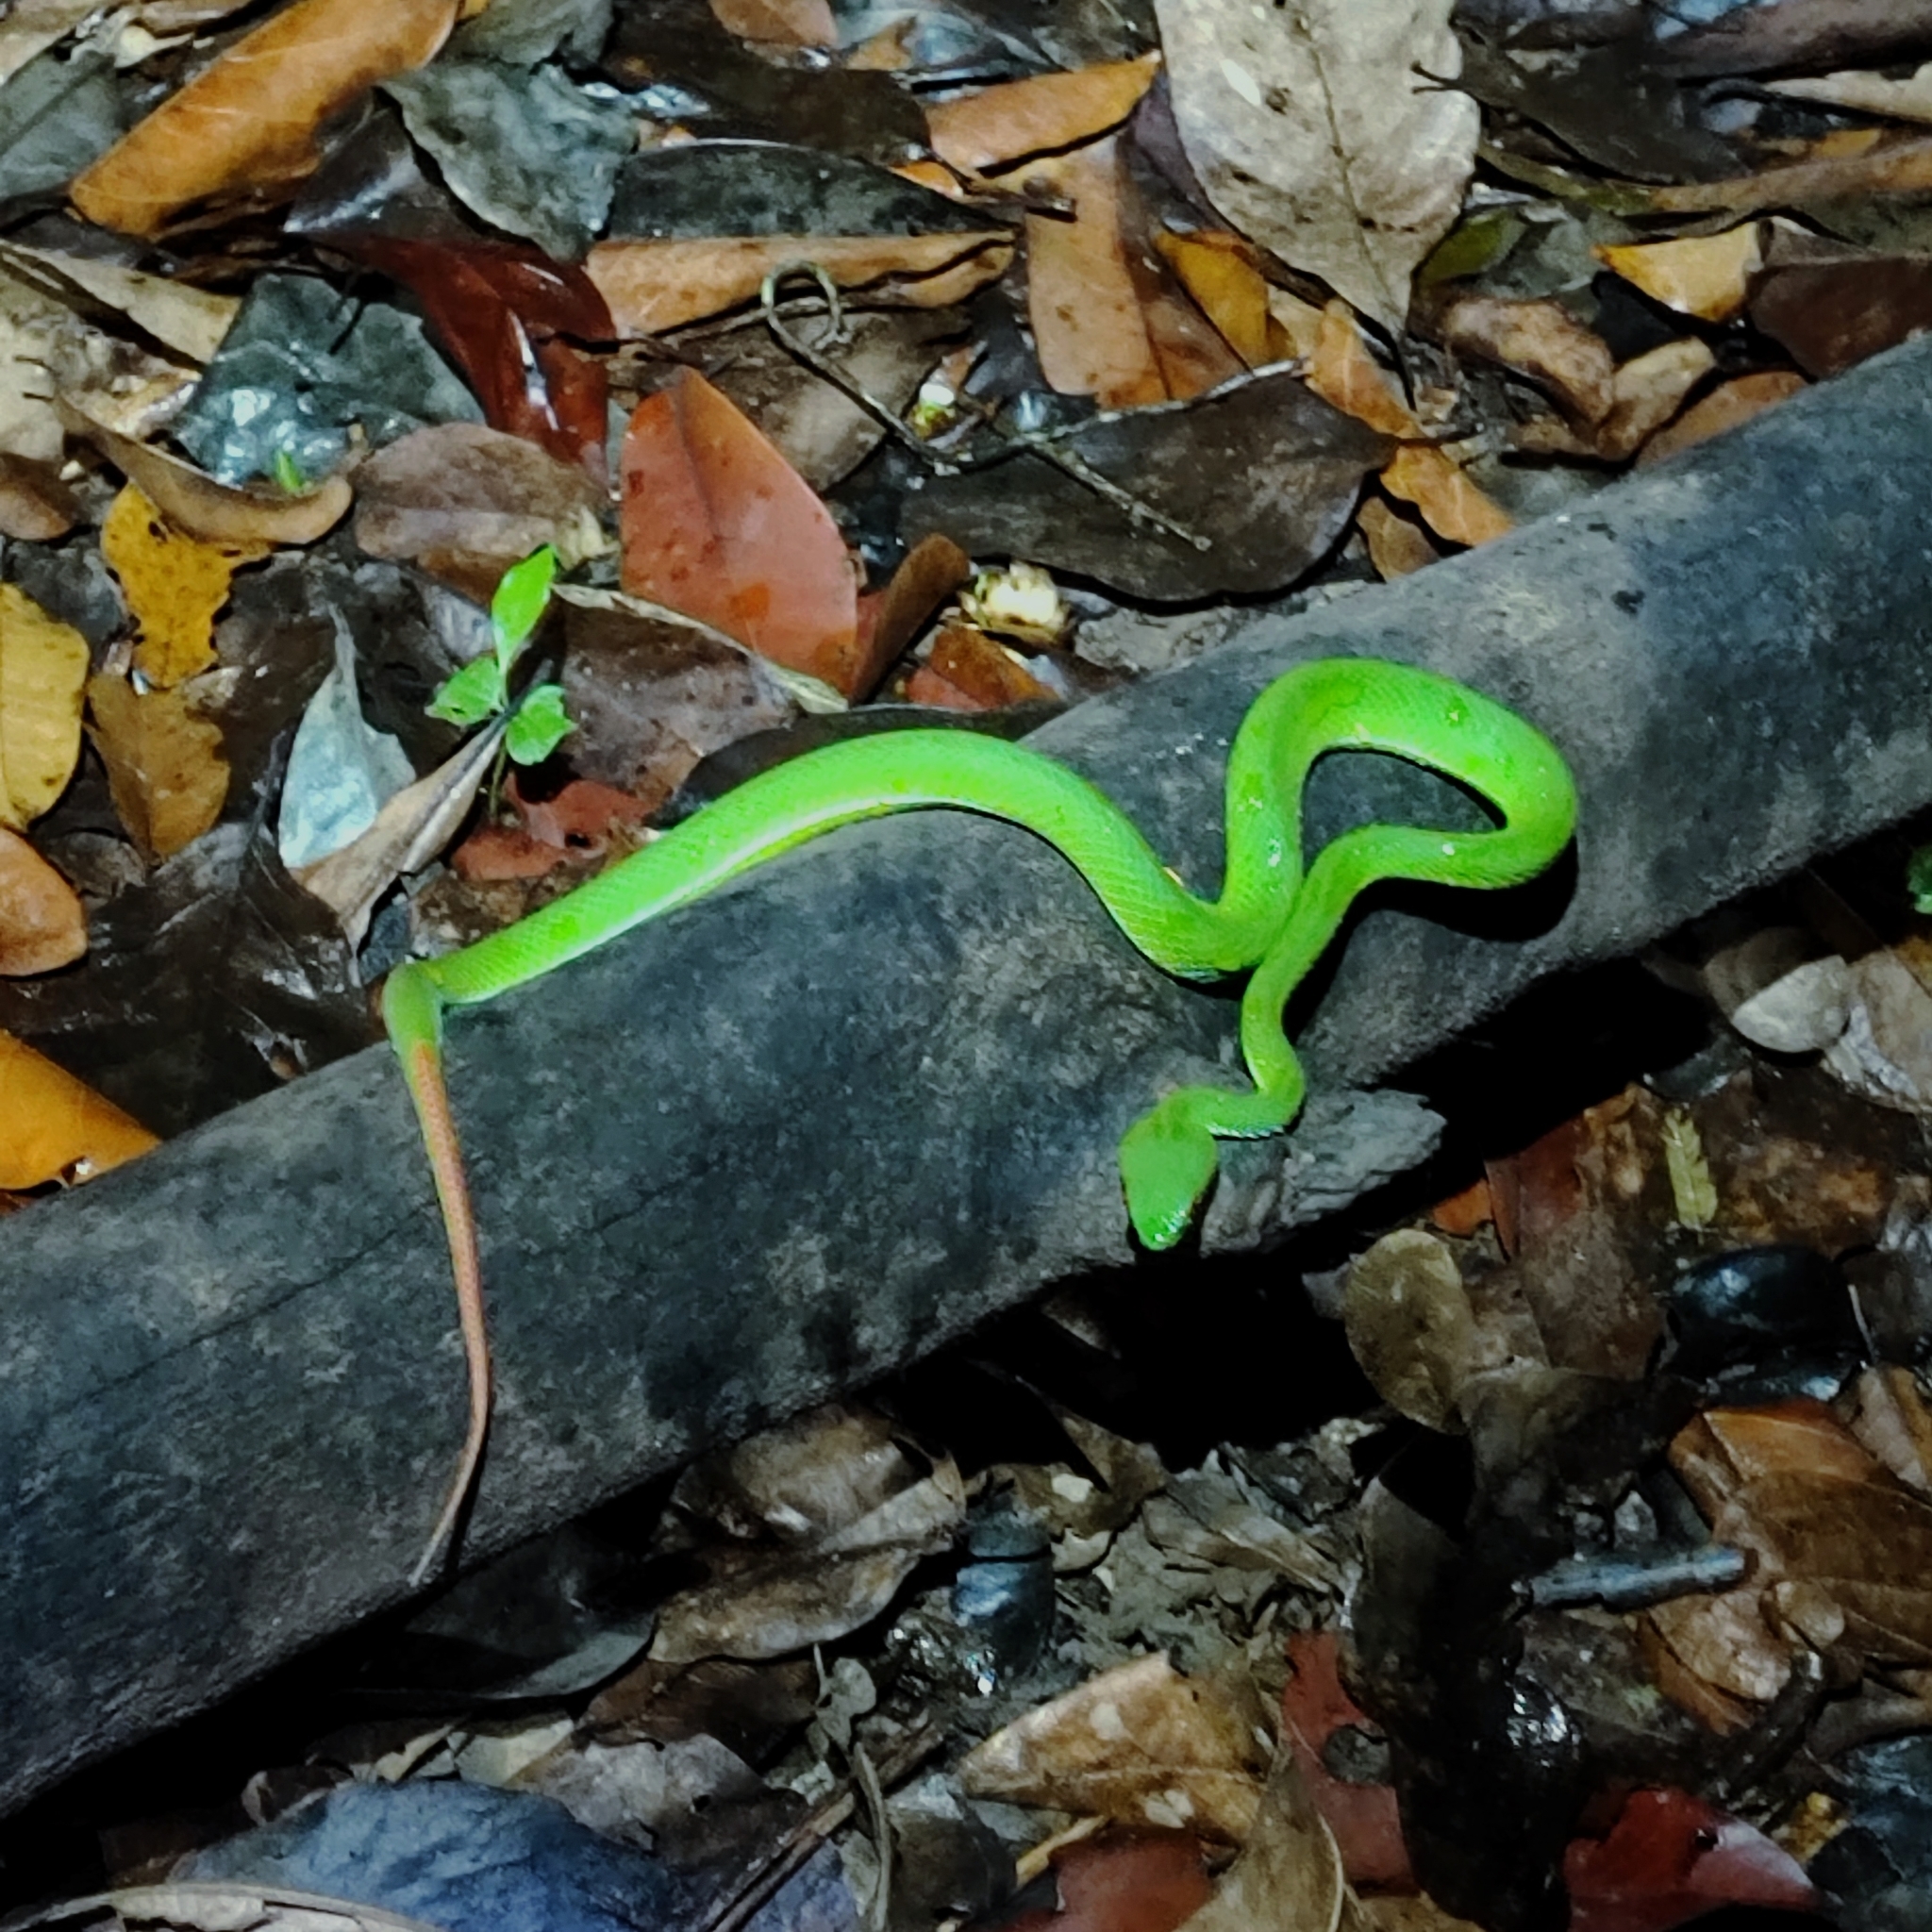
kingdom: Animalia
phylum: Chordata
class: Squamata
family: Viperidae
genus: Craspedocephalus
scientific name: Craspedocephalus rubeus
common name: Ruby-eyed green pitviper
